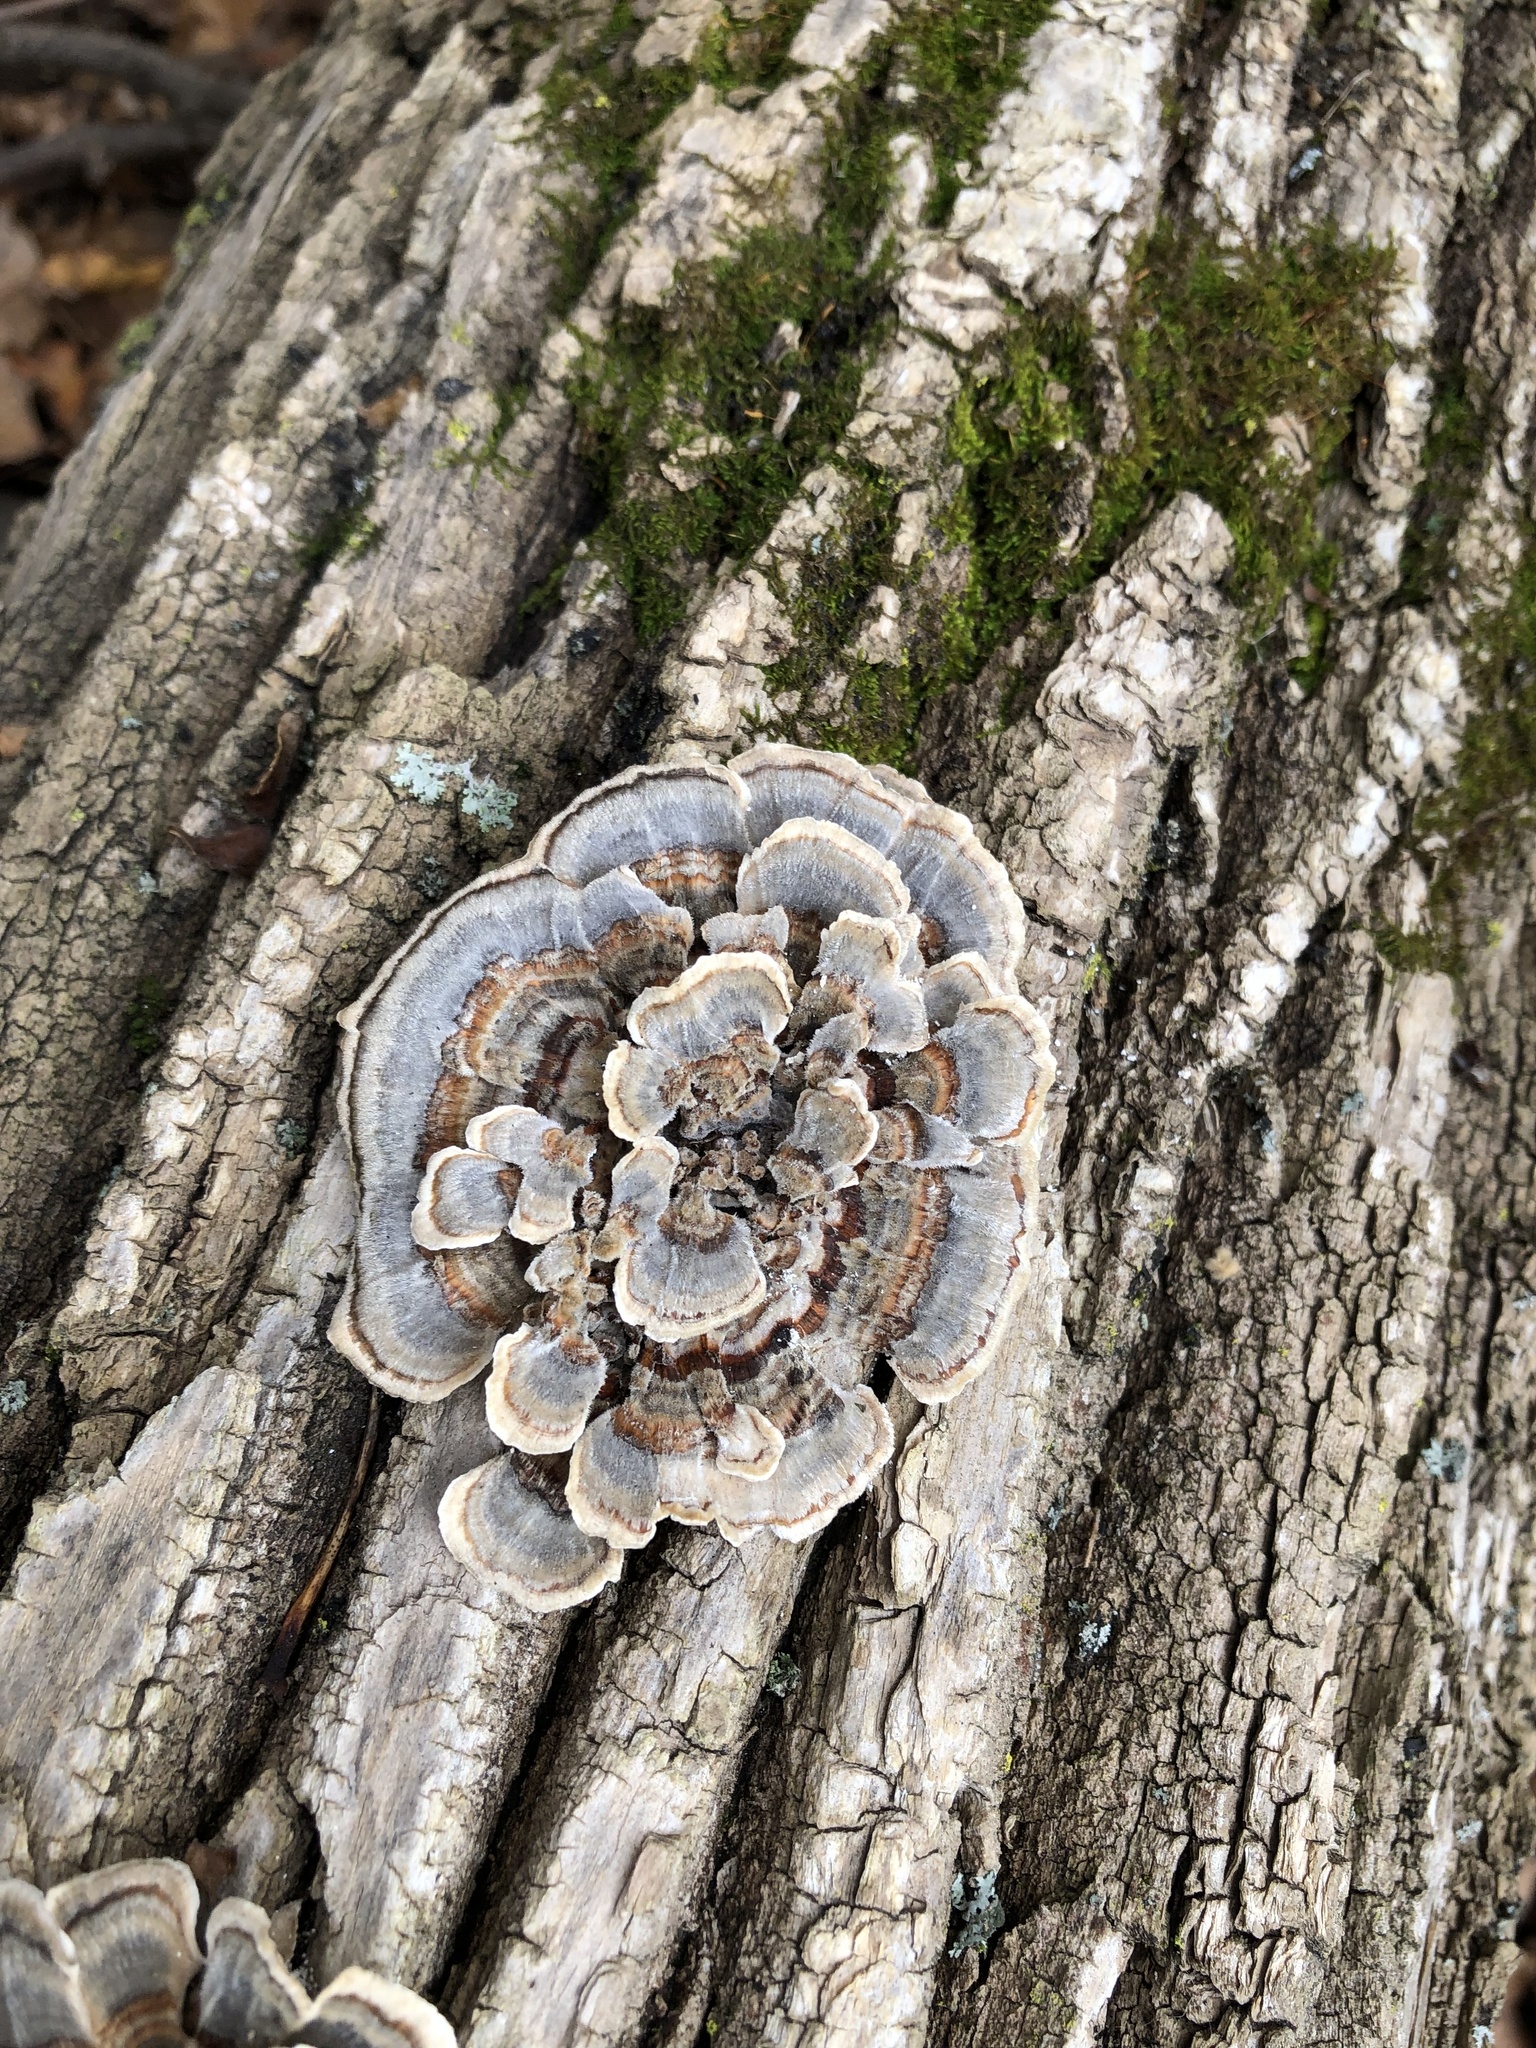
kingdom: Fungi
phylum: Basidiomycota
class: Agaricomycetes
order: Polyporales
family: Polyporaceae
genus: Trametes
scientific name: Trametes versicolor
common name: Turkeytail
